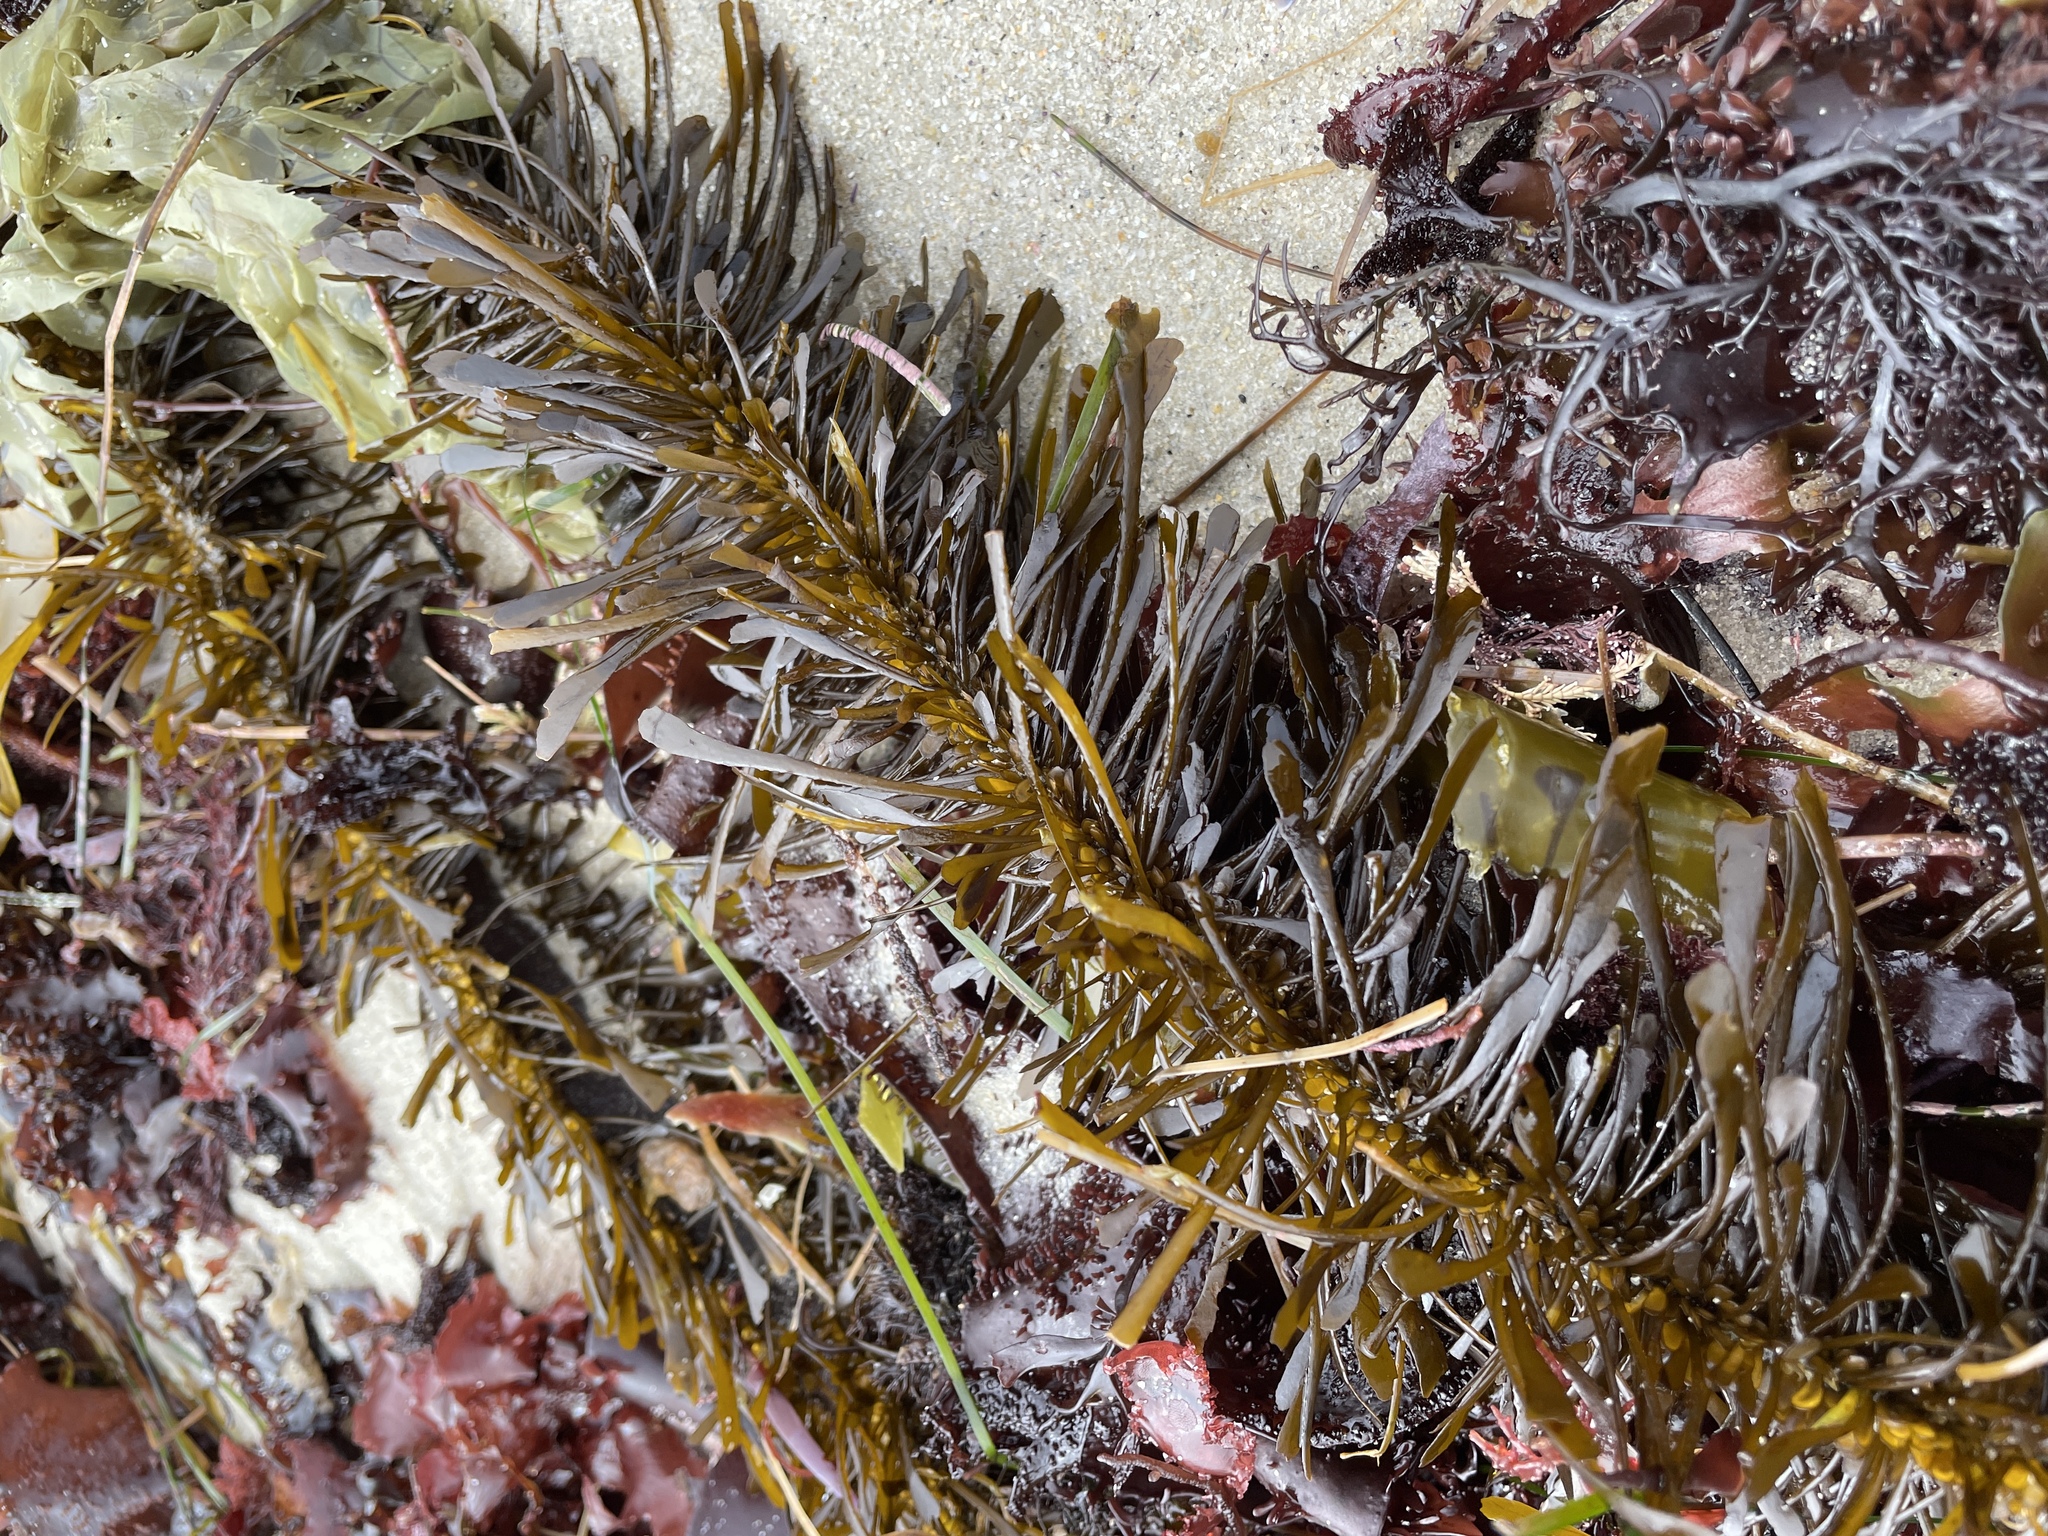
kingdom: Chromista
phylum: Ochrophyta
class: Phaeophyceae
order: Laminariales
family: Lessoniaceae
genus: Egregia
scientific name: Egregia menziesii
